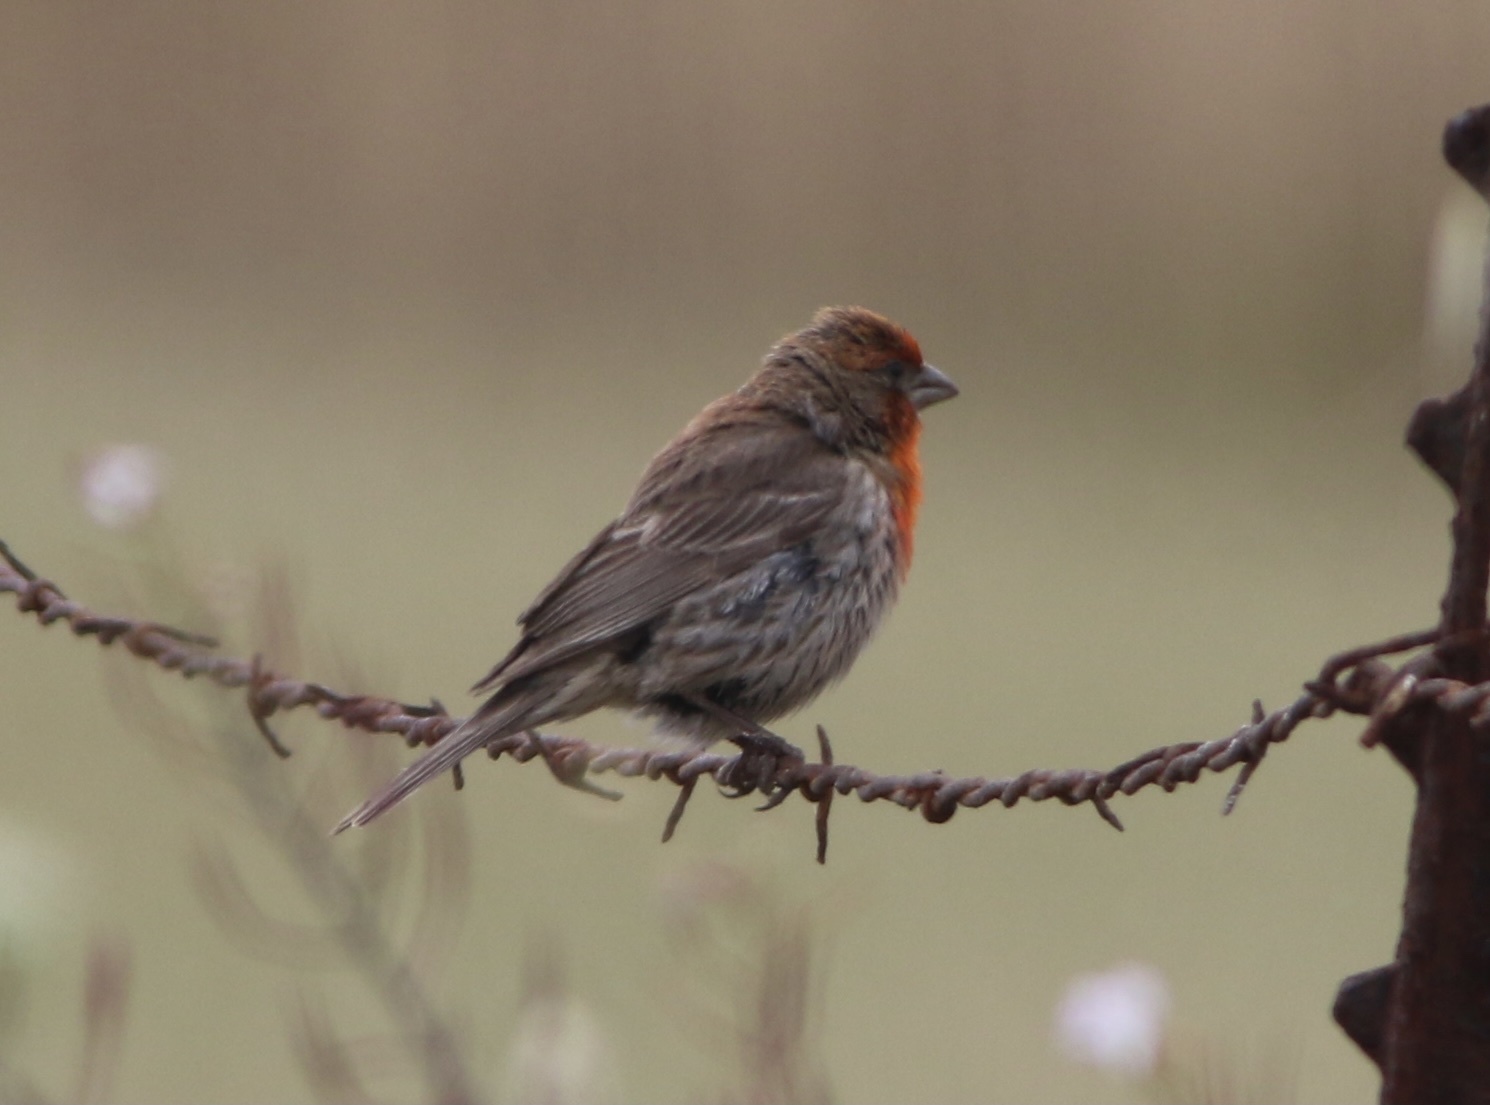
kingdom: Animalia
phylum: Chordata
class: Aves
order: Passeriformes
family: Fringillidae
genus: Haemorhous
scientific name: Haemorhous mexicanus
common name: House finch
